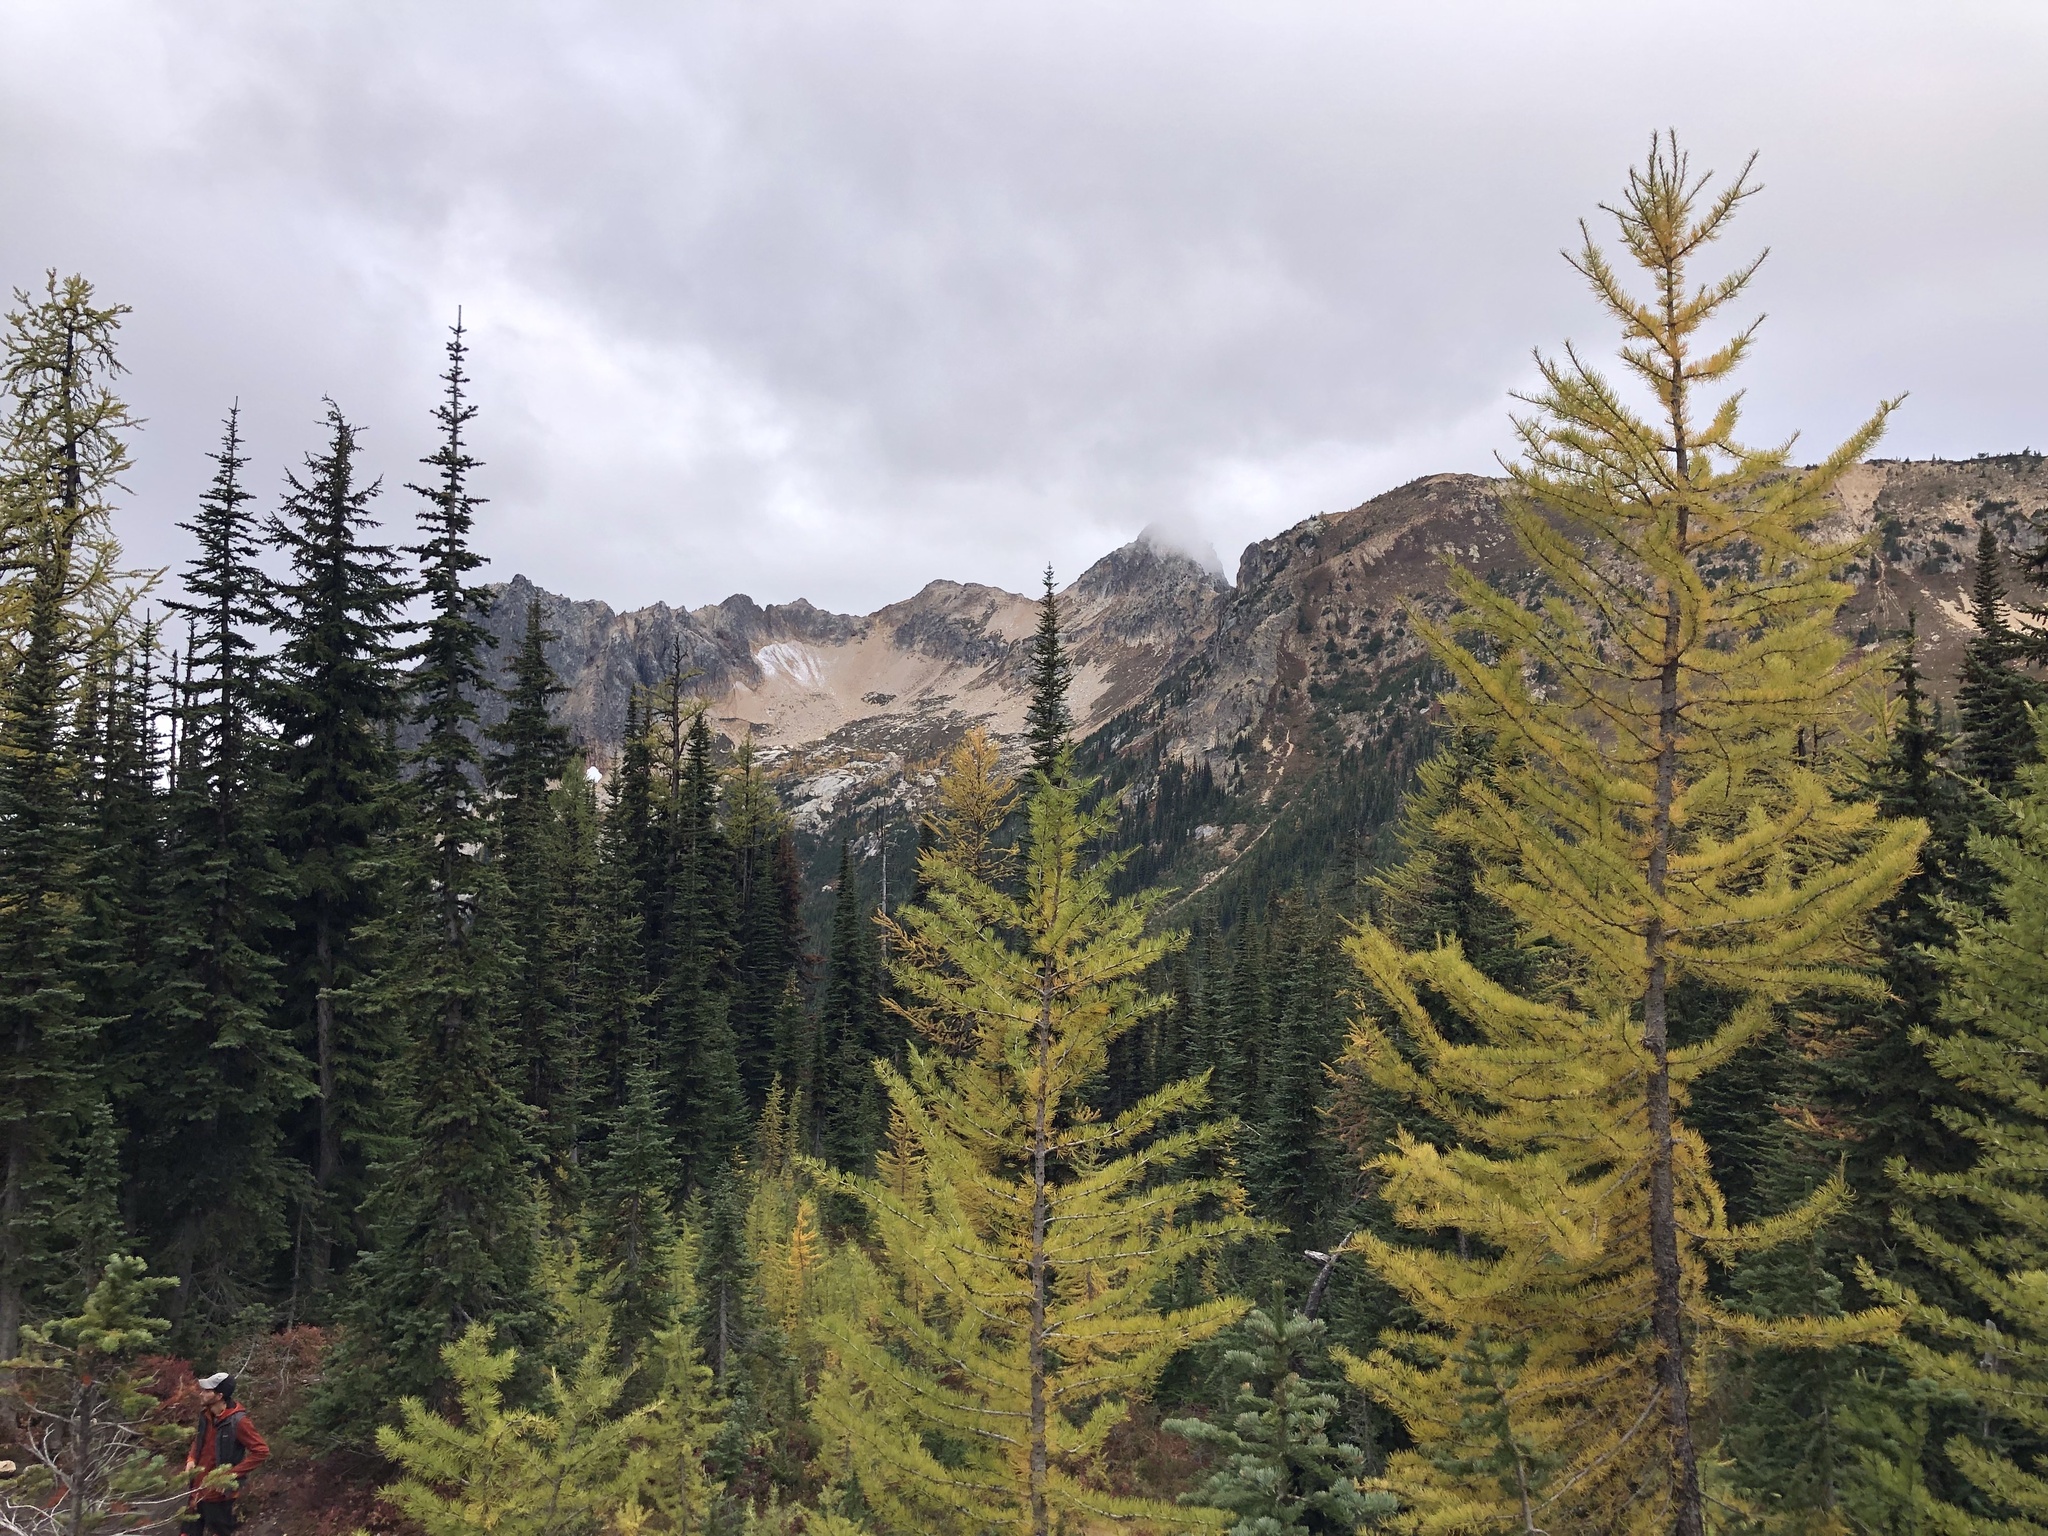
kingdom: Plantae
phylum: Tracheophyta
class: Pinopsida
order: Pinales
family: Pinaceae
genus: Larix
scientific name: Larix lyallii
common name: Alpine larch
